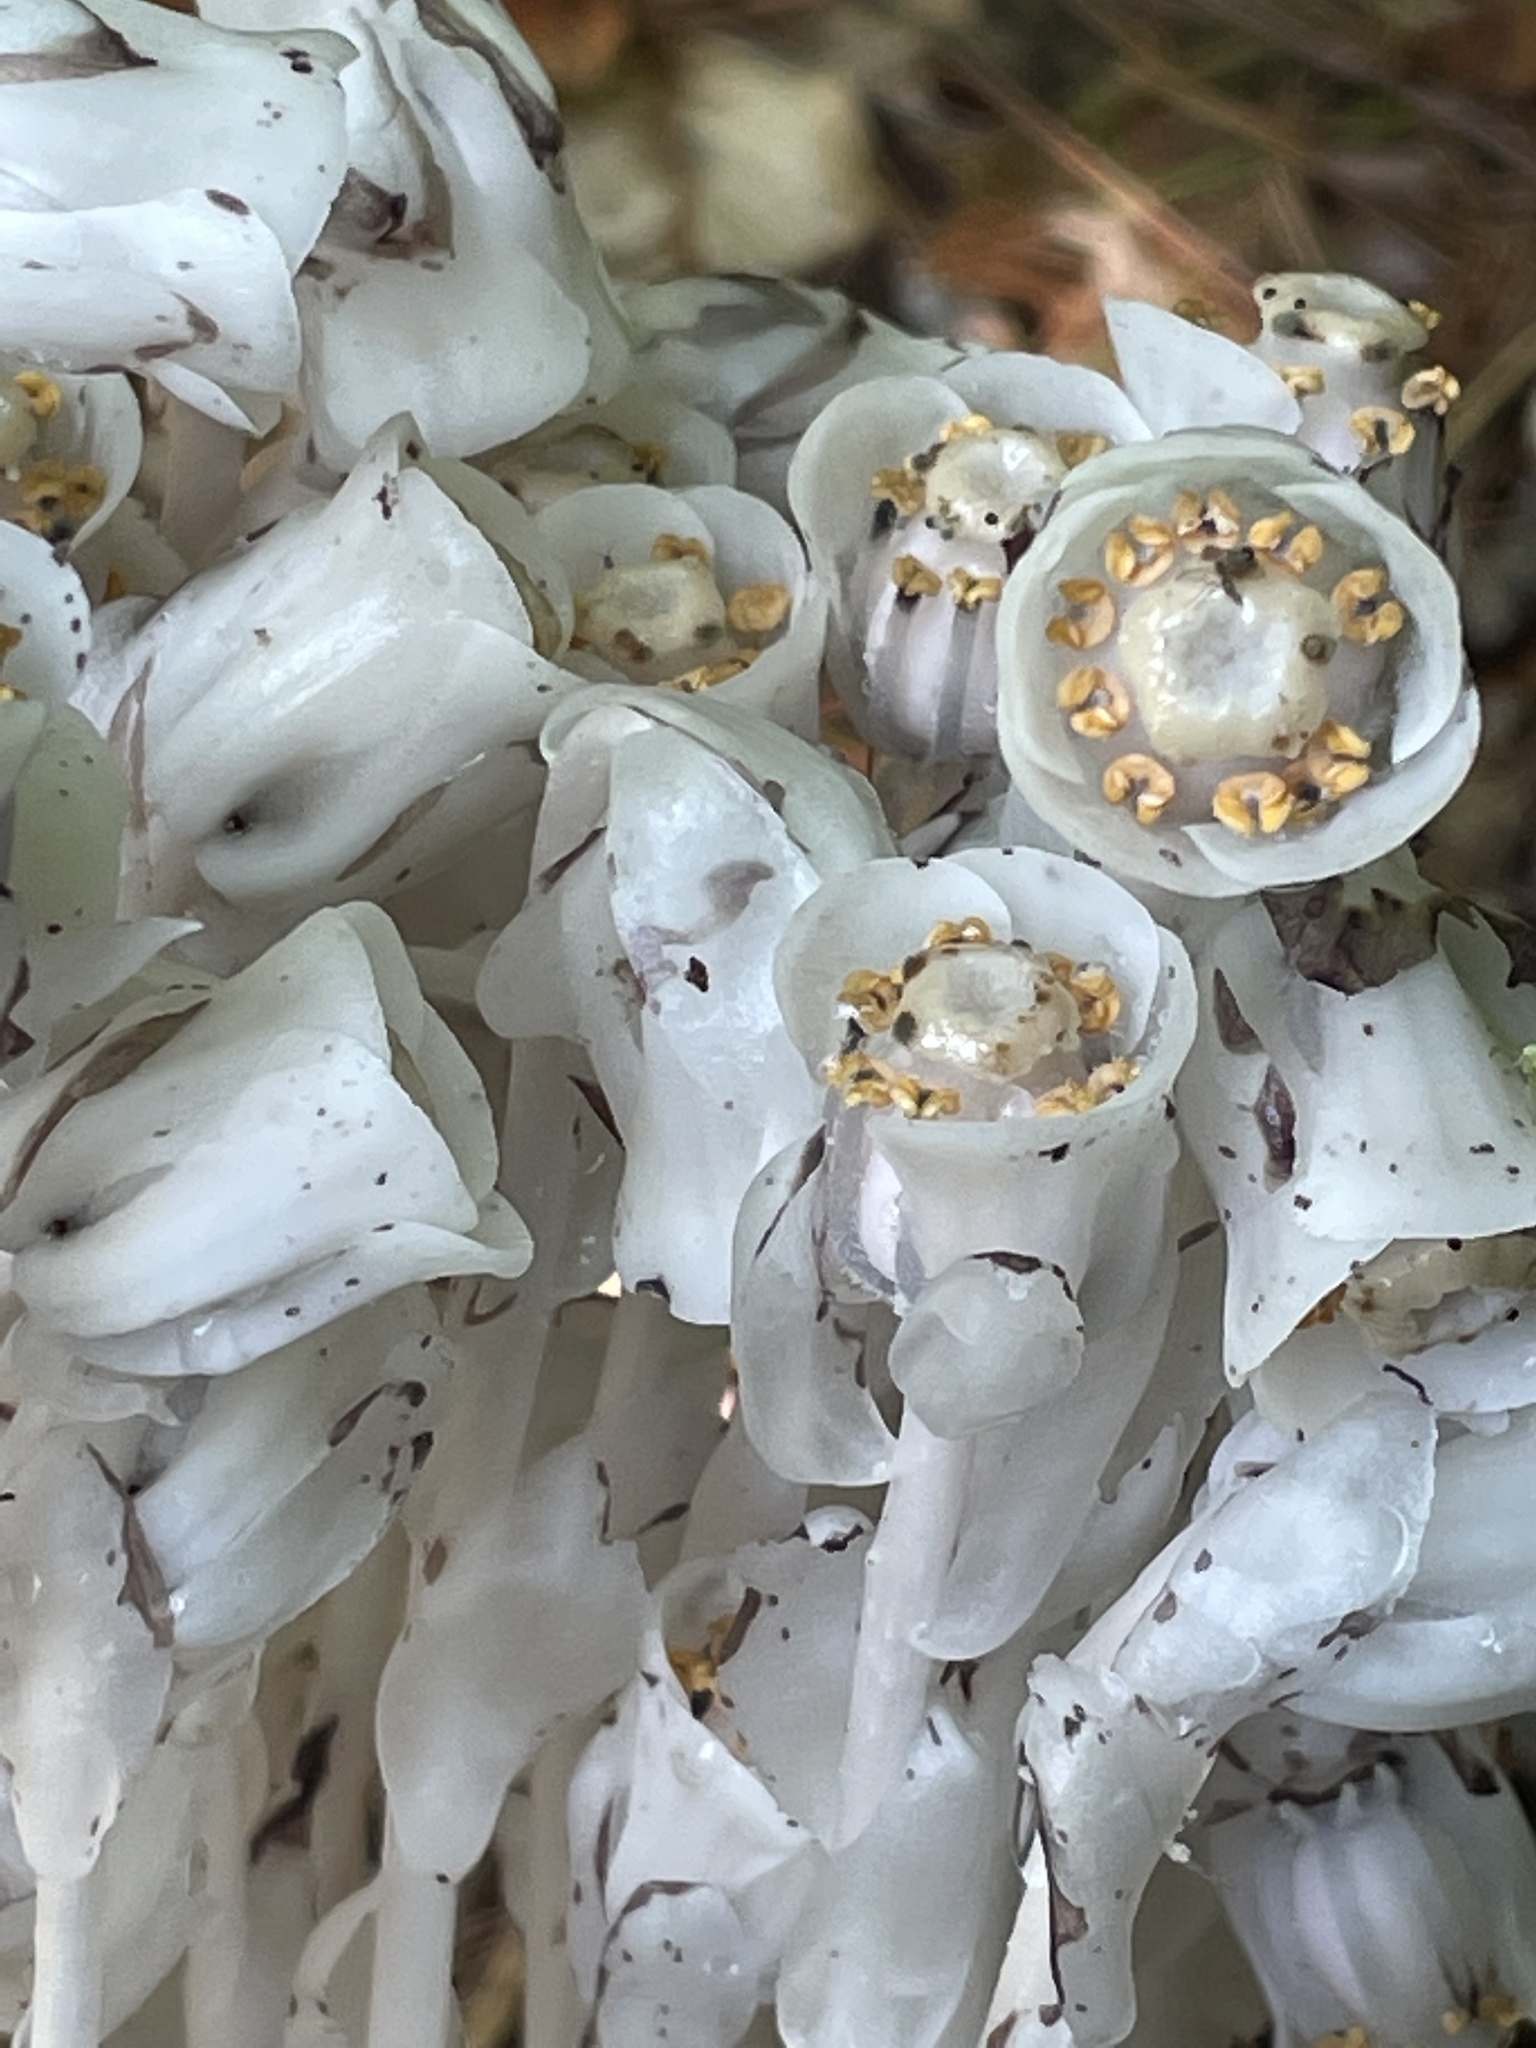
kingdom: Plantae
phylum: Tracheophyta
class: Magnoliopsida
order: Ericales
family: Ericaceae
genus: Monotropa
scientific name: Monotropa uniflora
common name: Convulsion root
